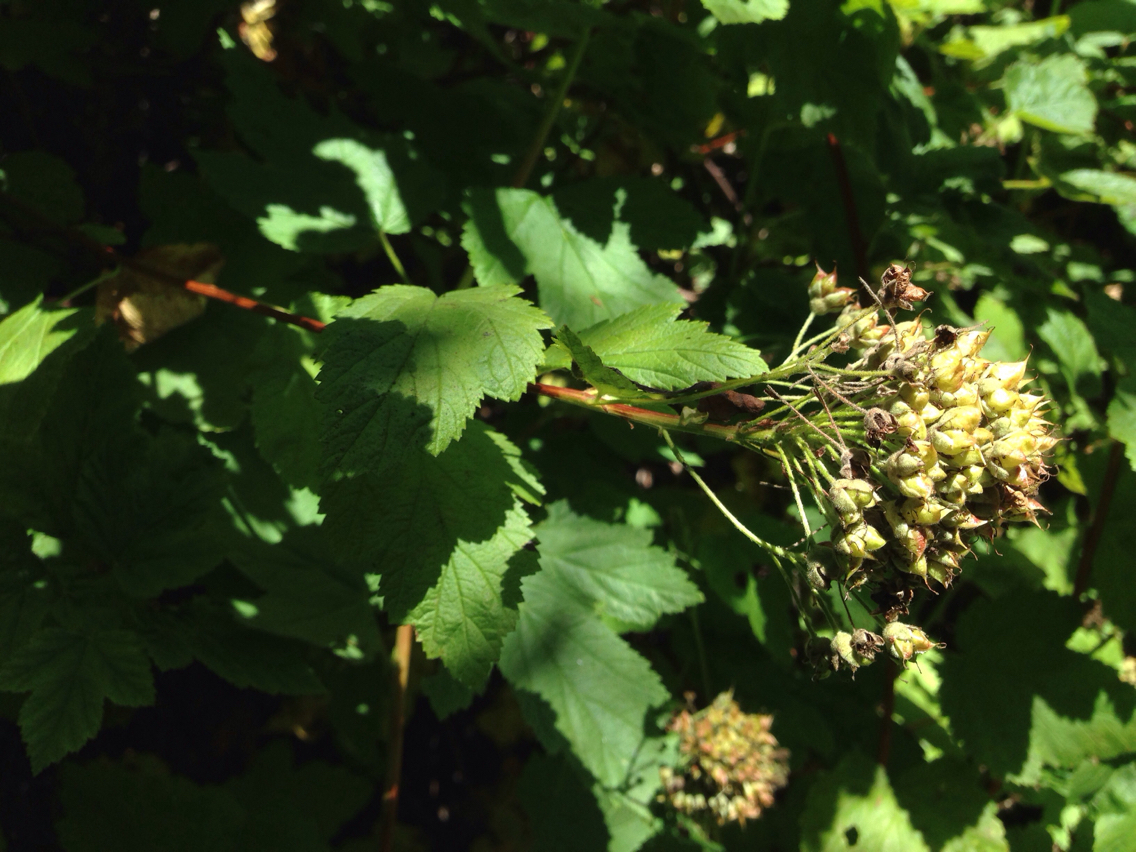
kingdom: Plantae
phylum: Tracheophyta
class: Magnoliopsida
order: Rosales
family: Rosaceae
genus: Physocarpus
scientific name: Physocarpus capitatus
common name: Pacific ninebark
